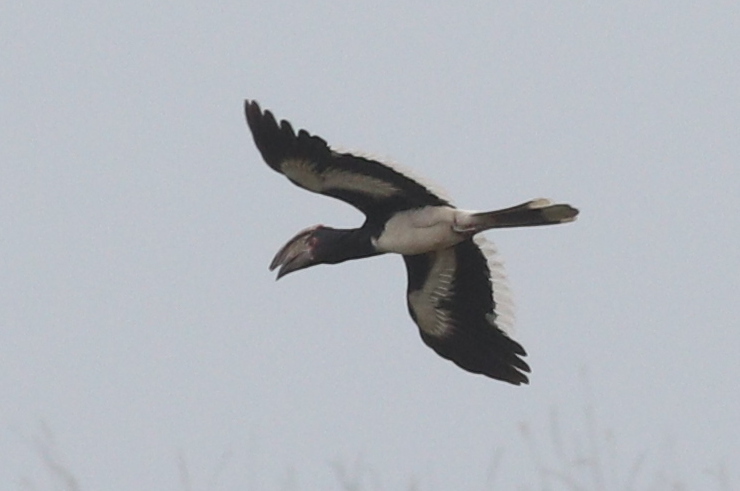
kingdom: Animalia
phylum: Chordata
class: Aves
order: Bucerotiformes
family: Bucerotidae
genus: Bycanistes
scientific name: Bycanistes bucinator
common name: Trumpeter hornbill
